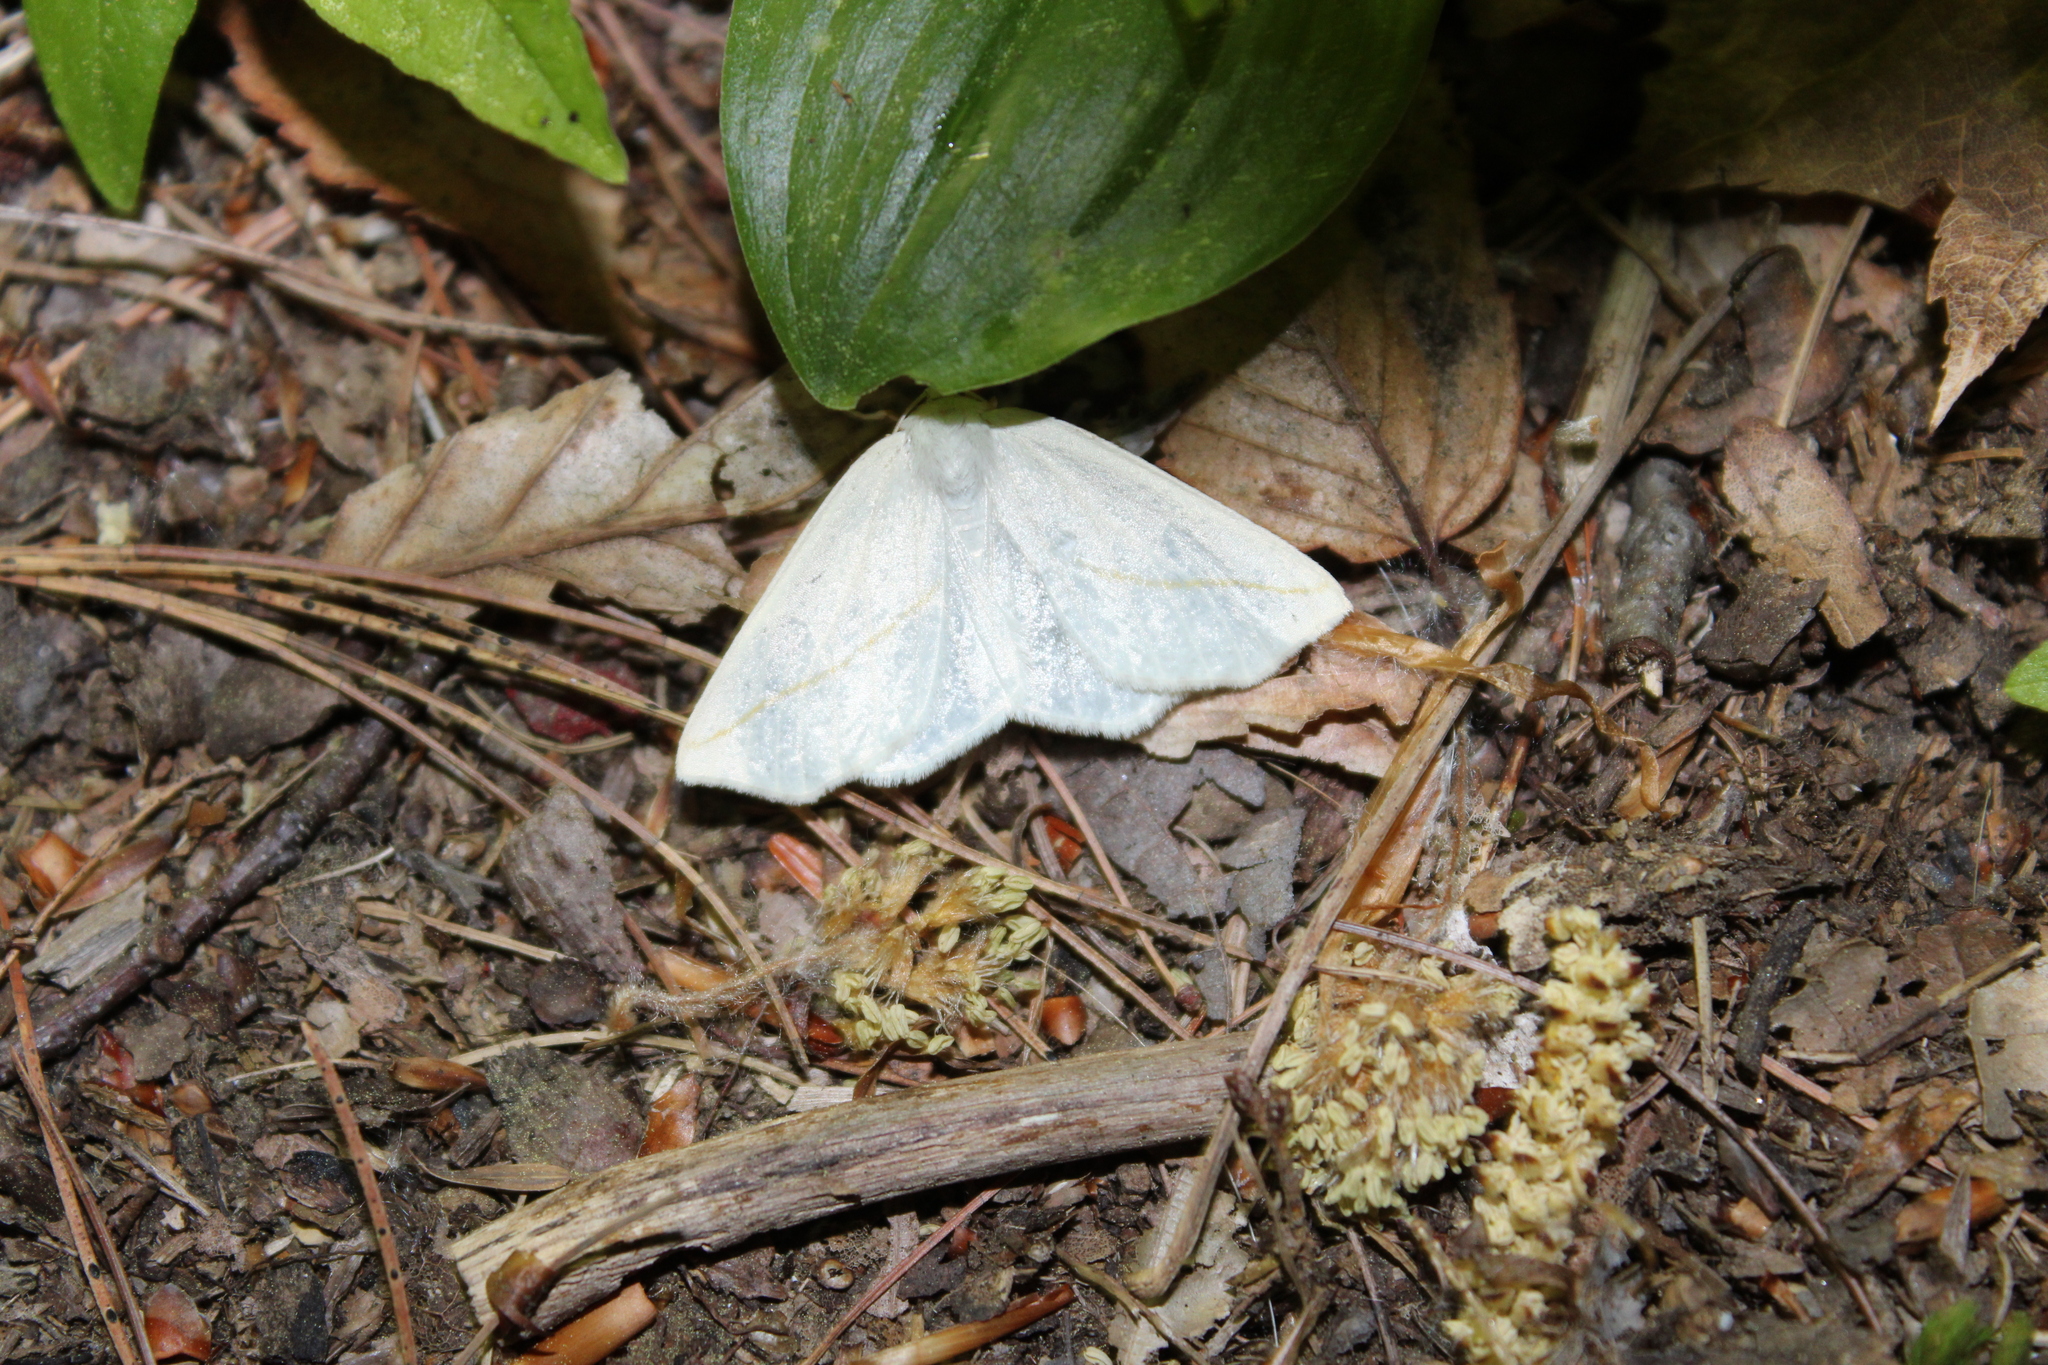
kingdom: Animalia
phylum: Arthropoda
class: Insecta
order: Lepidoptera
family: Geometridae
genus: Tetracis
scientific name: Tetracis cachexiata
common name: White slant-line
